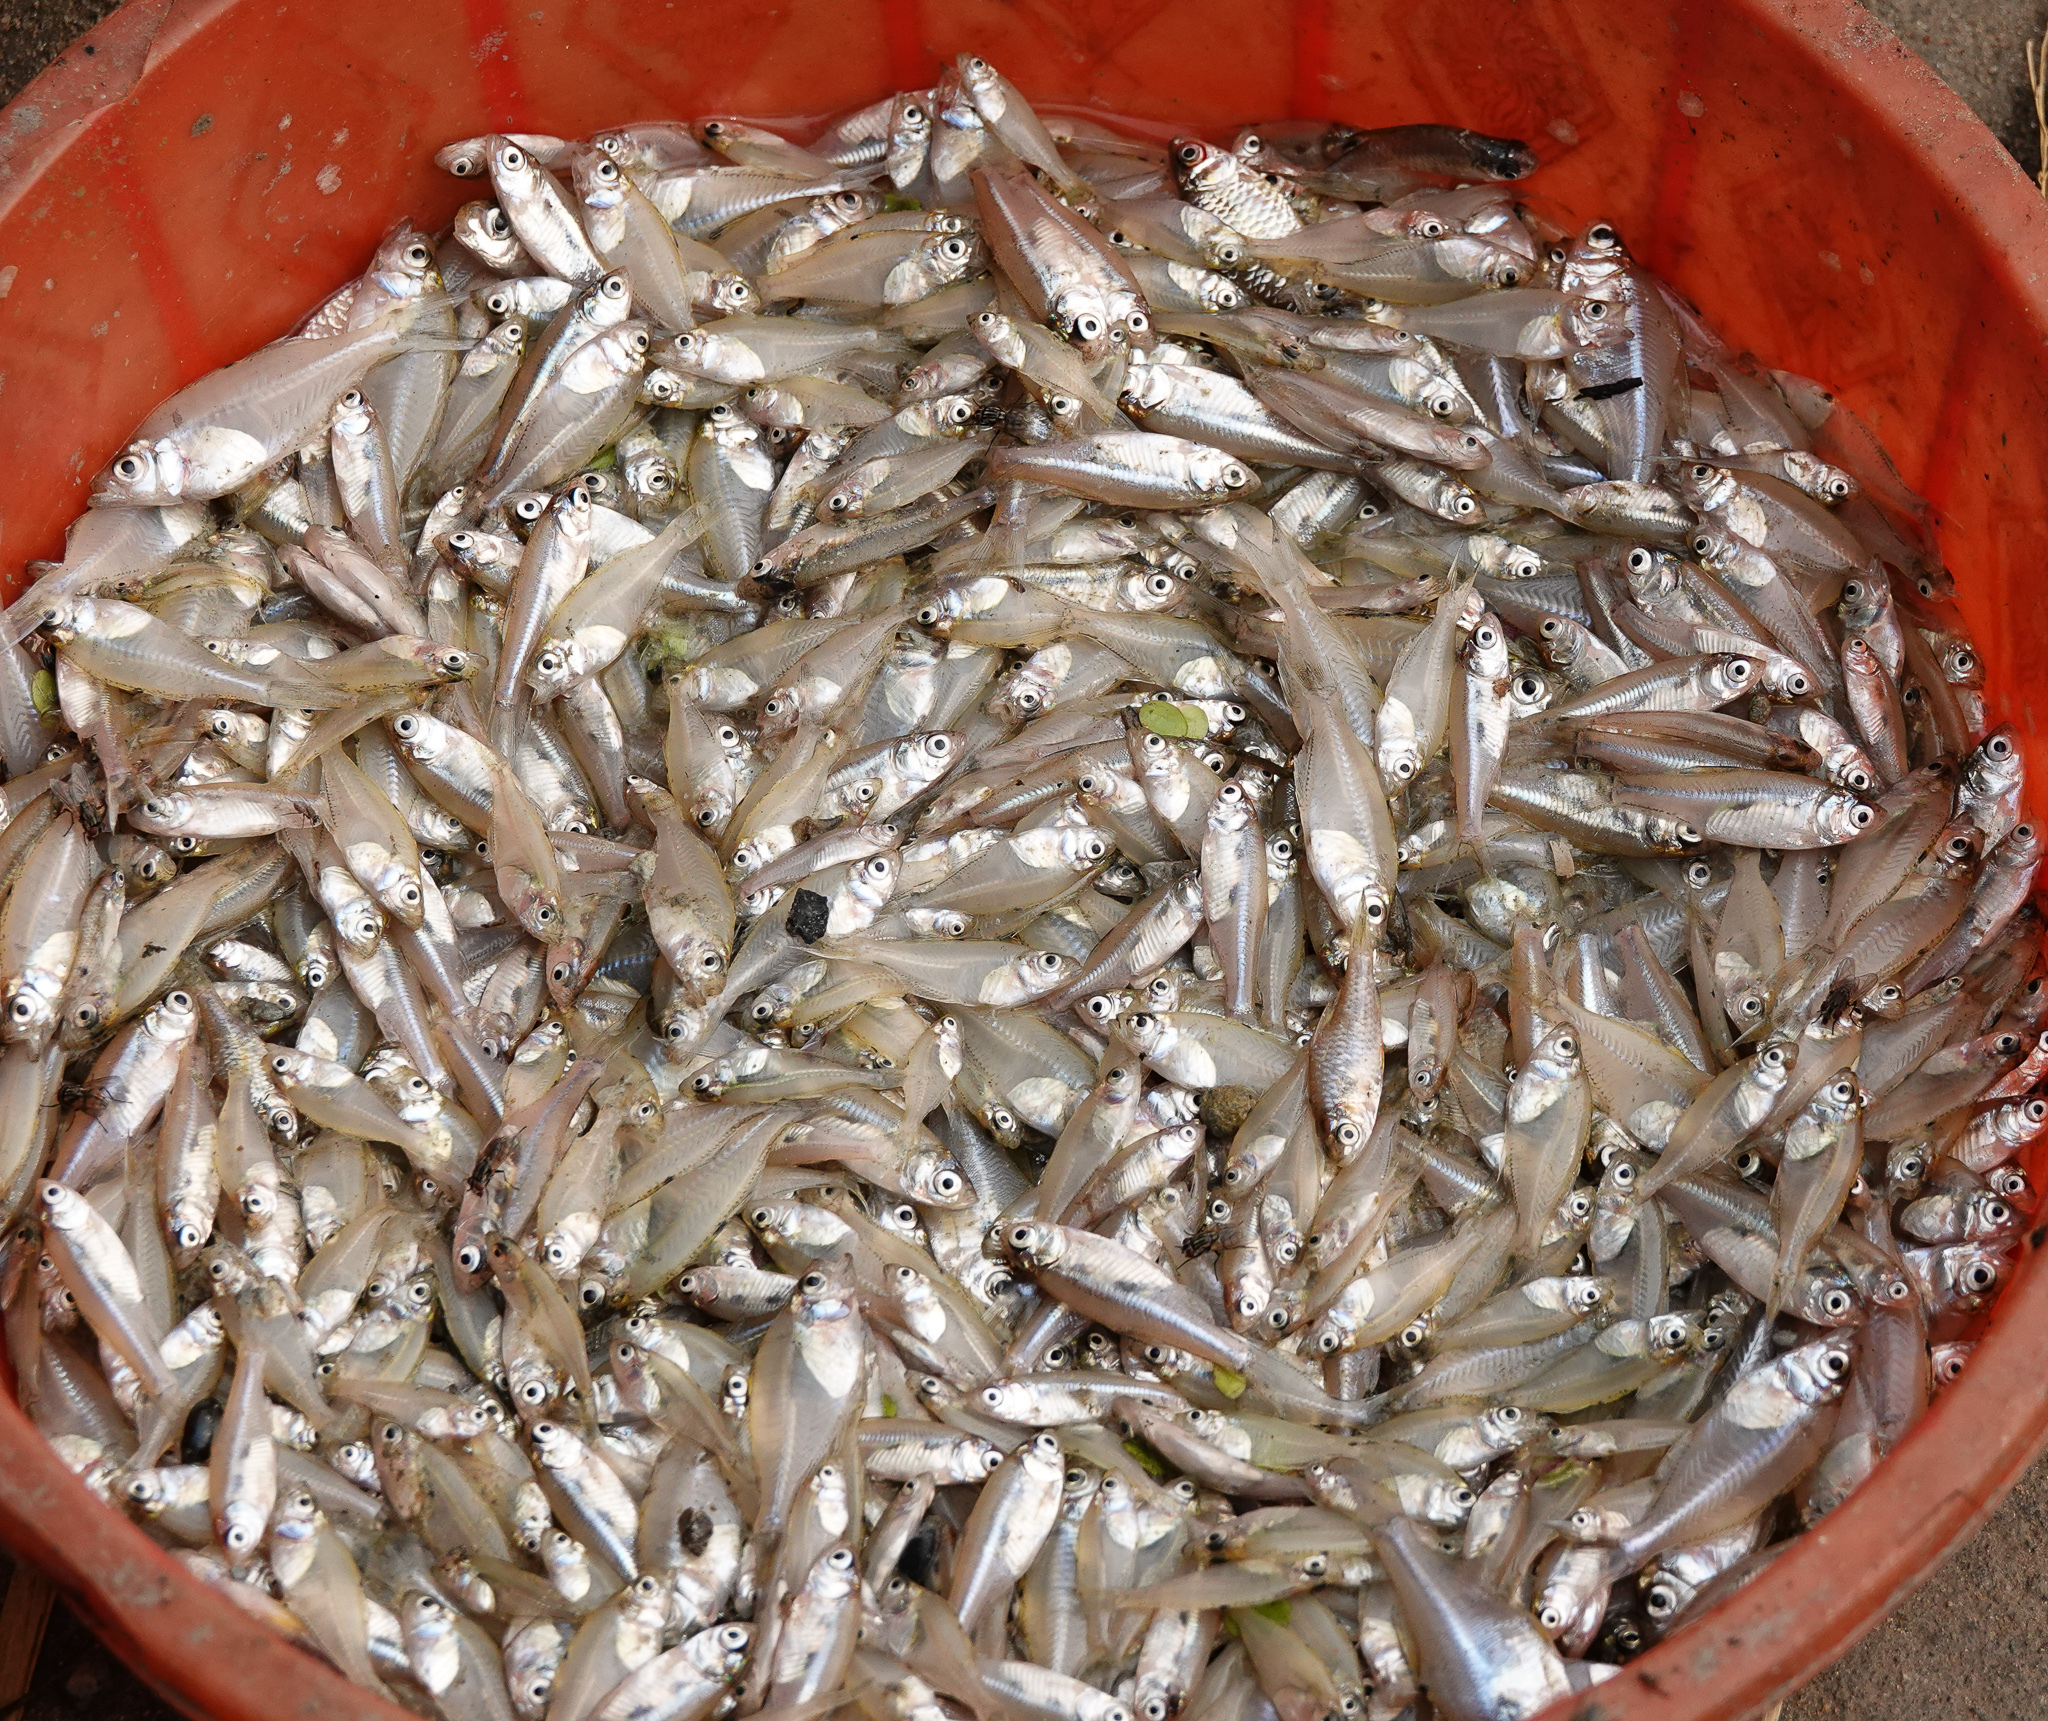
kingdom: Animalia
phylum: Chordata
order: Perciformes
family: Ambassidae
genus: Chanda
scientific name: Chanda nama
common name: Elongate glass-perchlet
